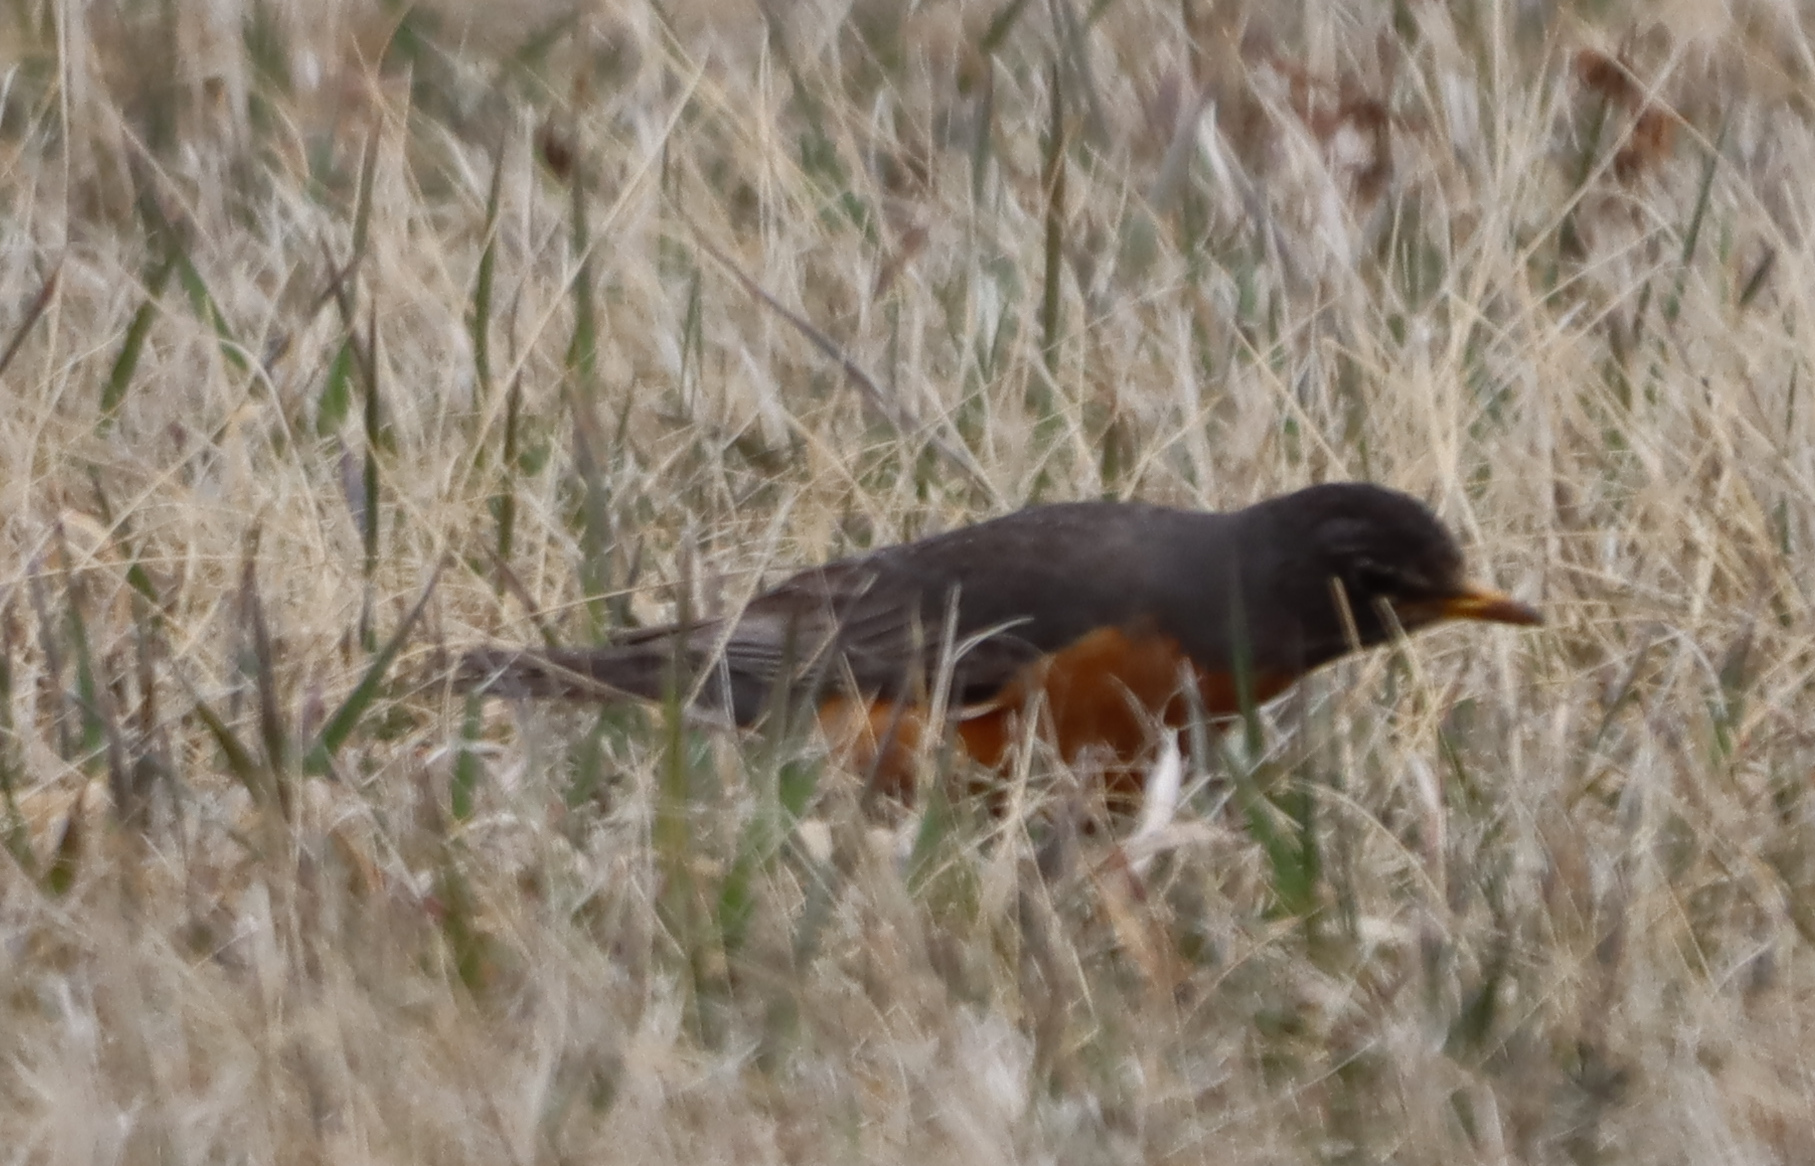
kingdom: Animalia
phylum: Chordata
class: Aves
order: Passeriformes
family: Turdidae
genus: Turdus
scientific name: Turdus migratorius
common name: American robin
